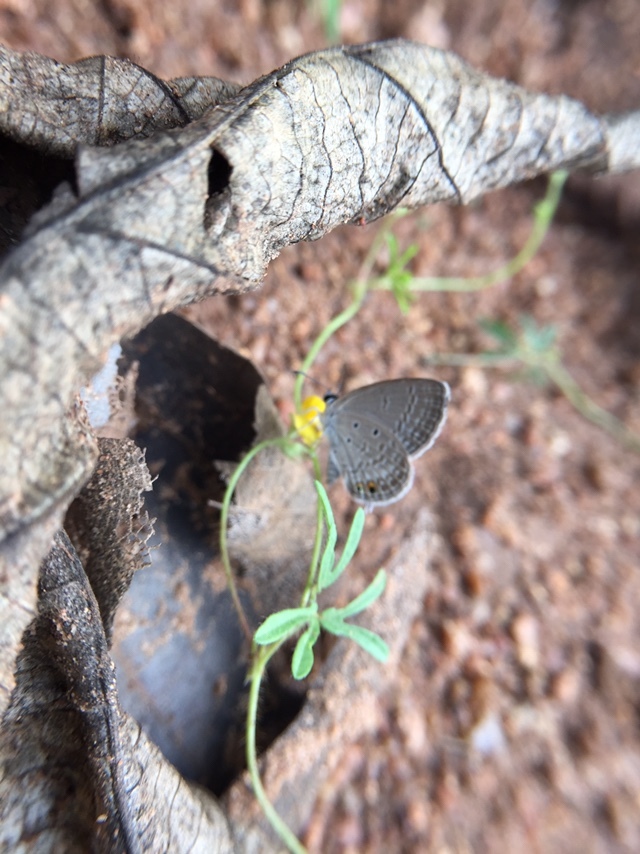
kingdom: Animalia
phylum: Arthropoda
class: Insecta
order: Lepidoptera
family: Lycaenidae
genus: Euchrysops
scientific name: Euchrysops cnejus
